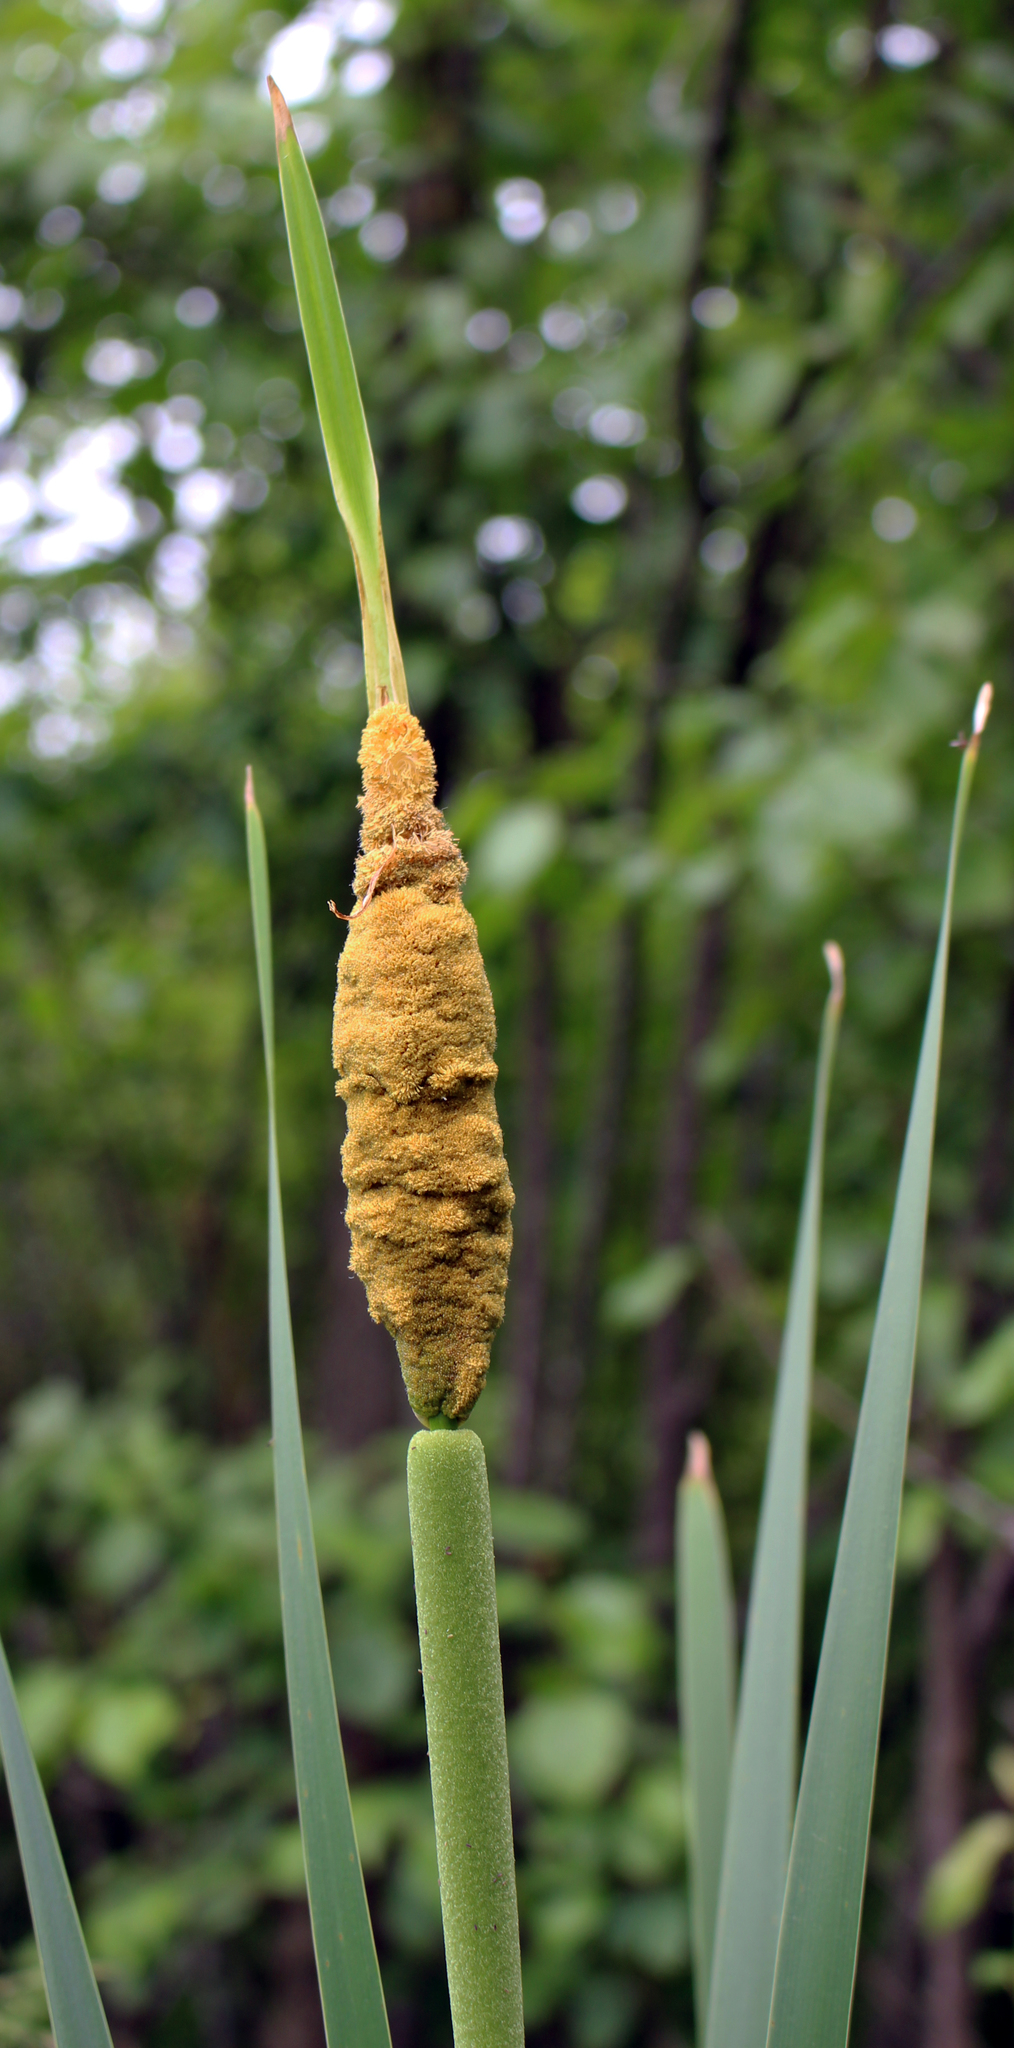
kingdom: Plantae
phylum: Tracheophyta
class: Liliopsida
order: Poales
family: Typhaceae
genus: Typha
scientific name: Typha latifolia
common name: Broadleaf cattail
